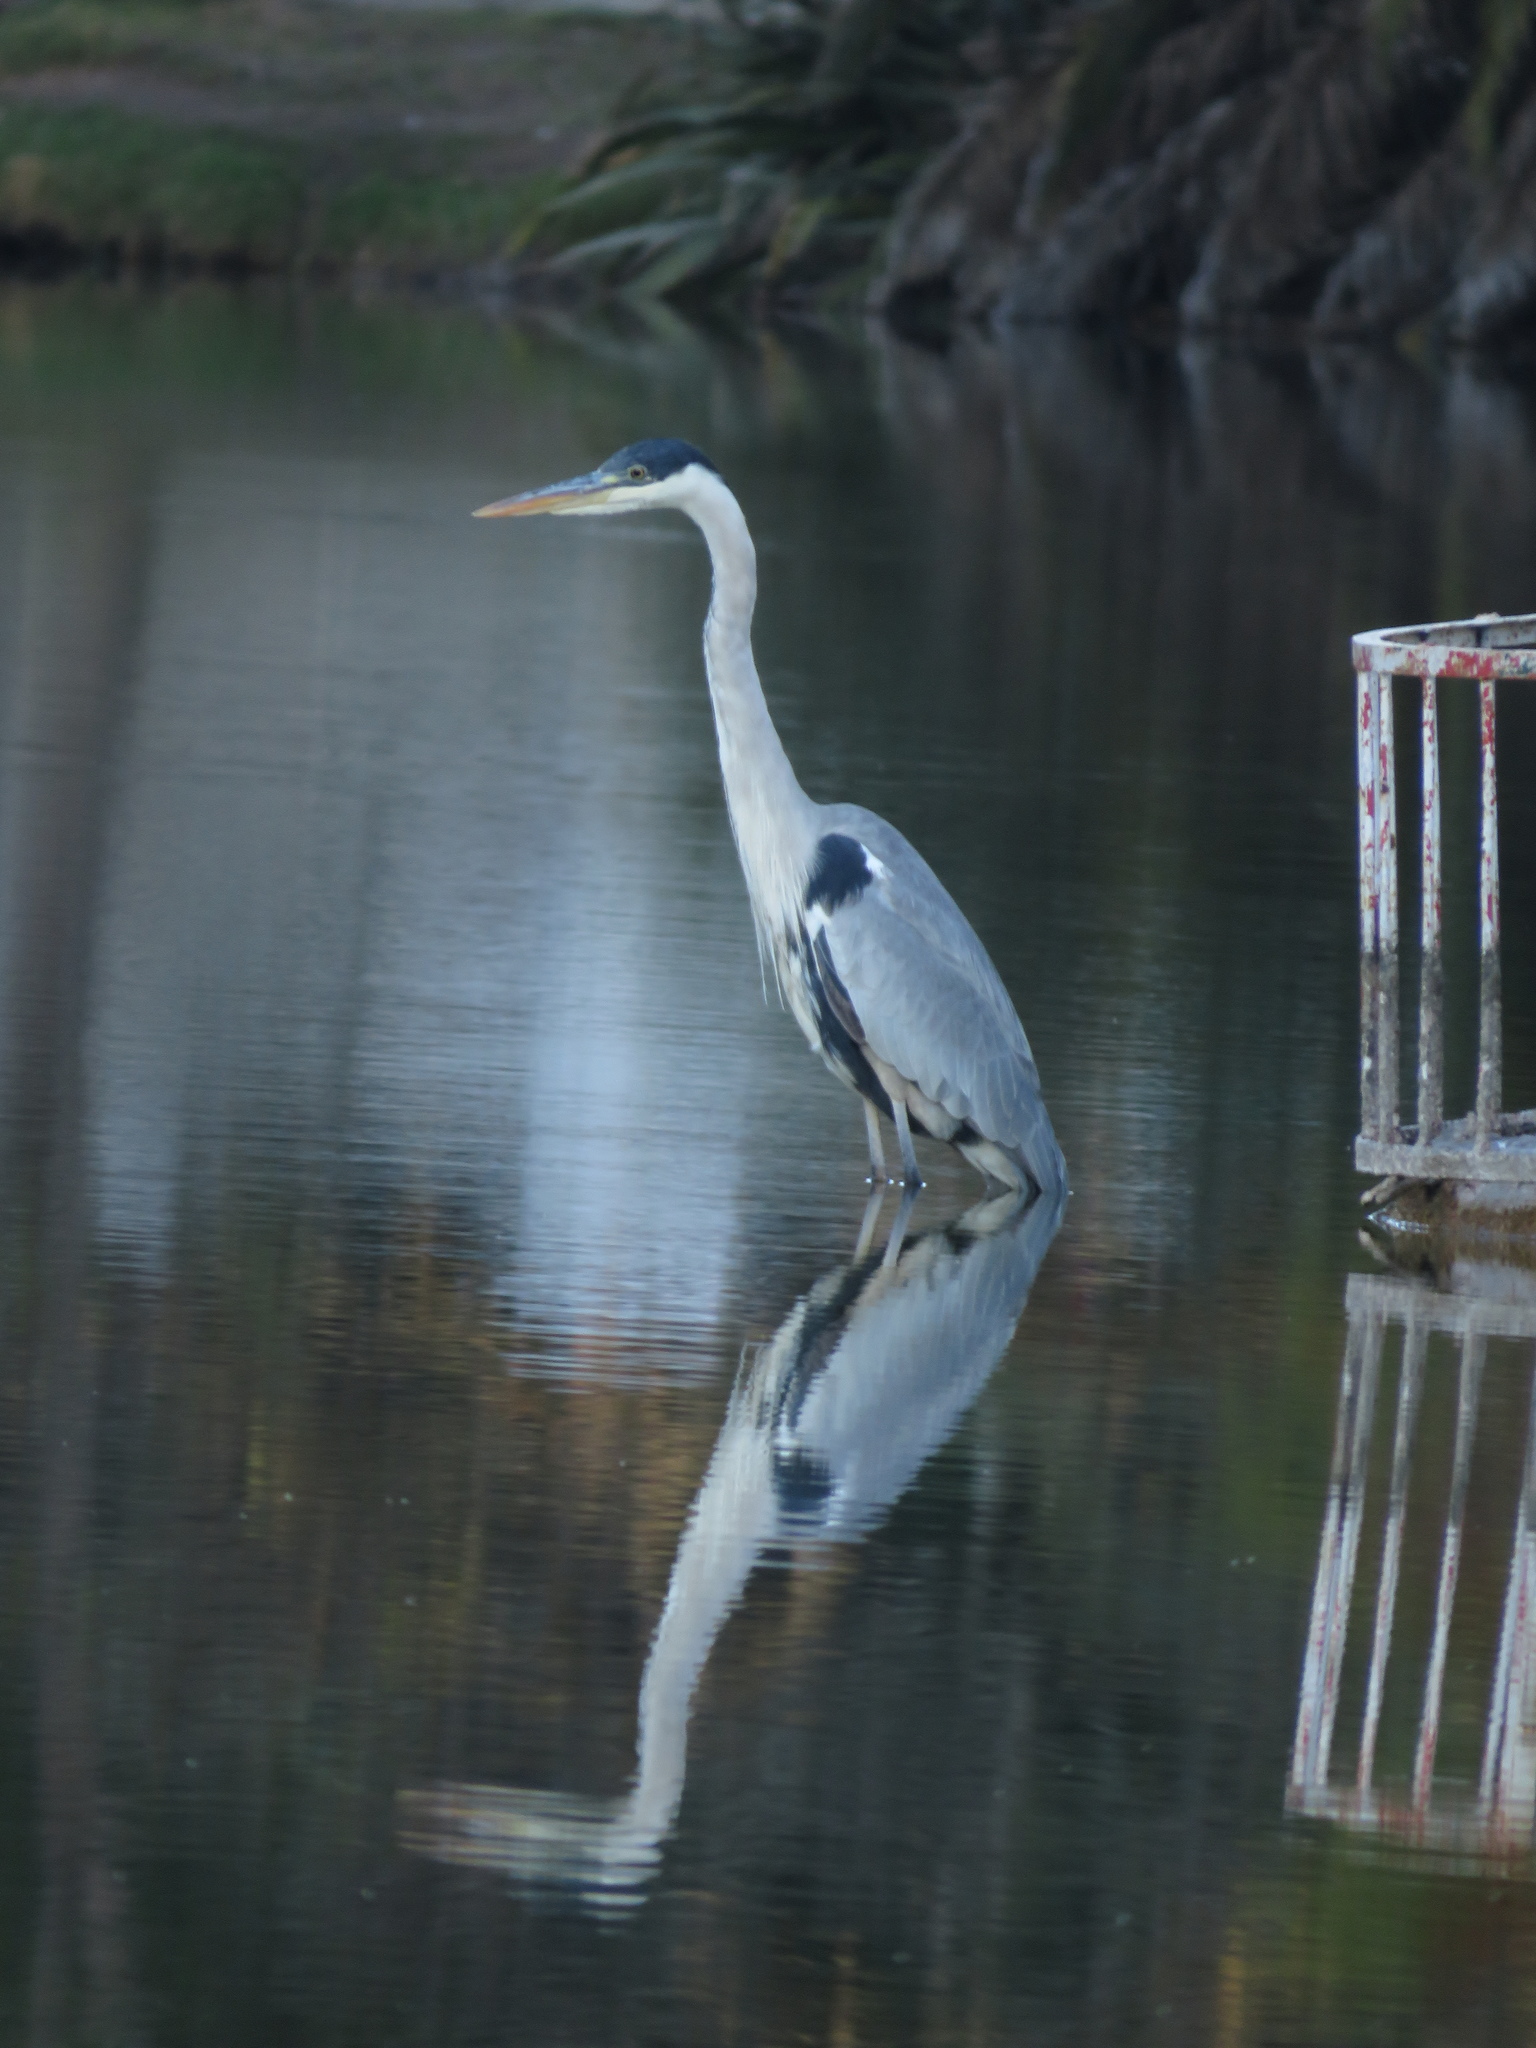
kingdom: Animalia
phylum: Chordata
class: Aves
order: Pelecaniformes
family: Ardeidae
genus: Ardea
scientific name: Ardea cocoi
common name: Cocoi heron
